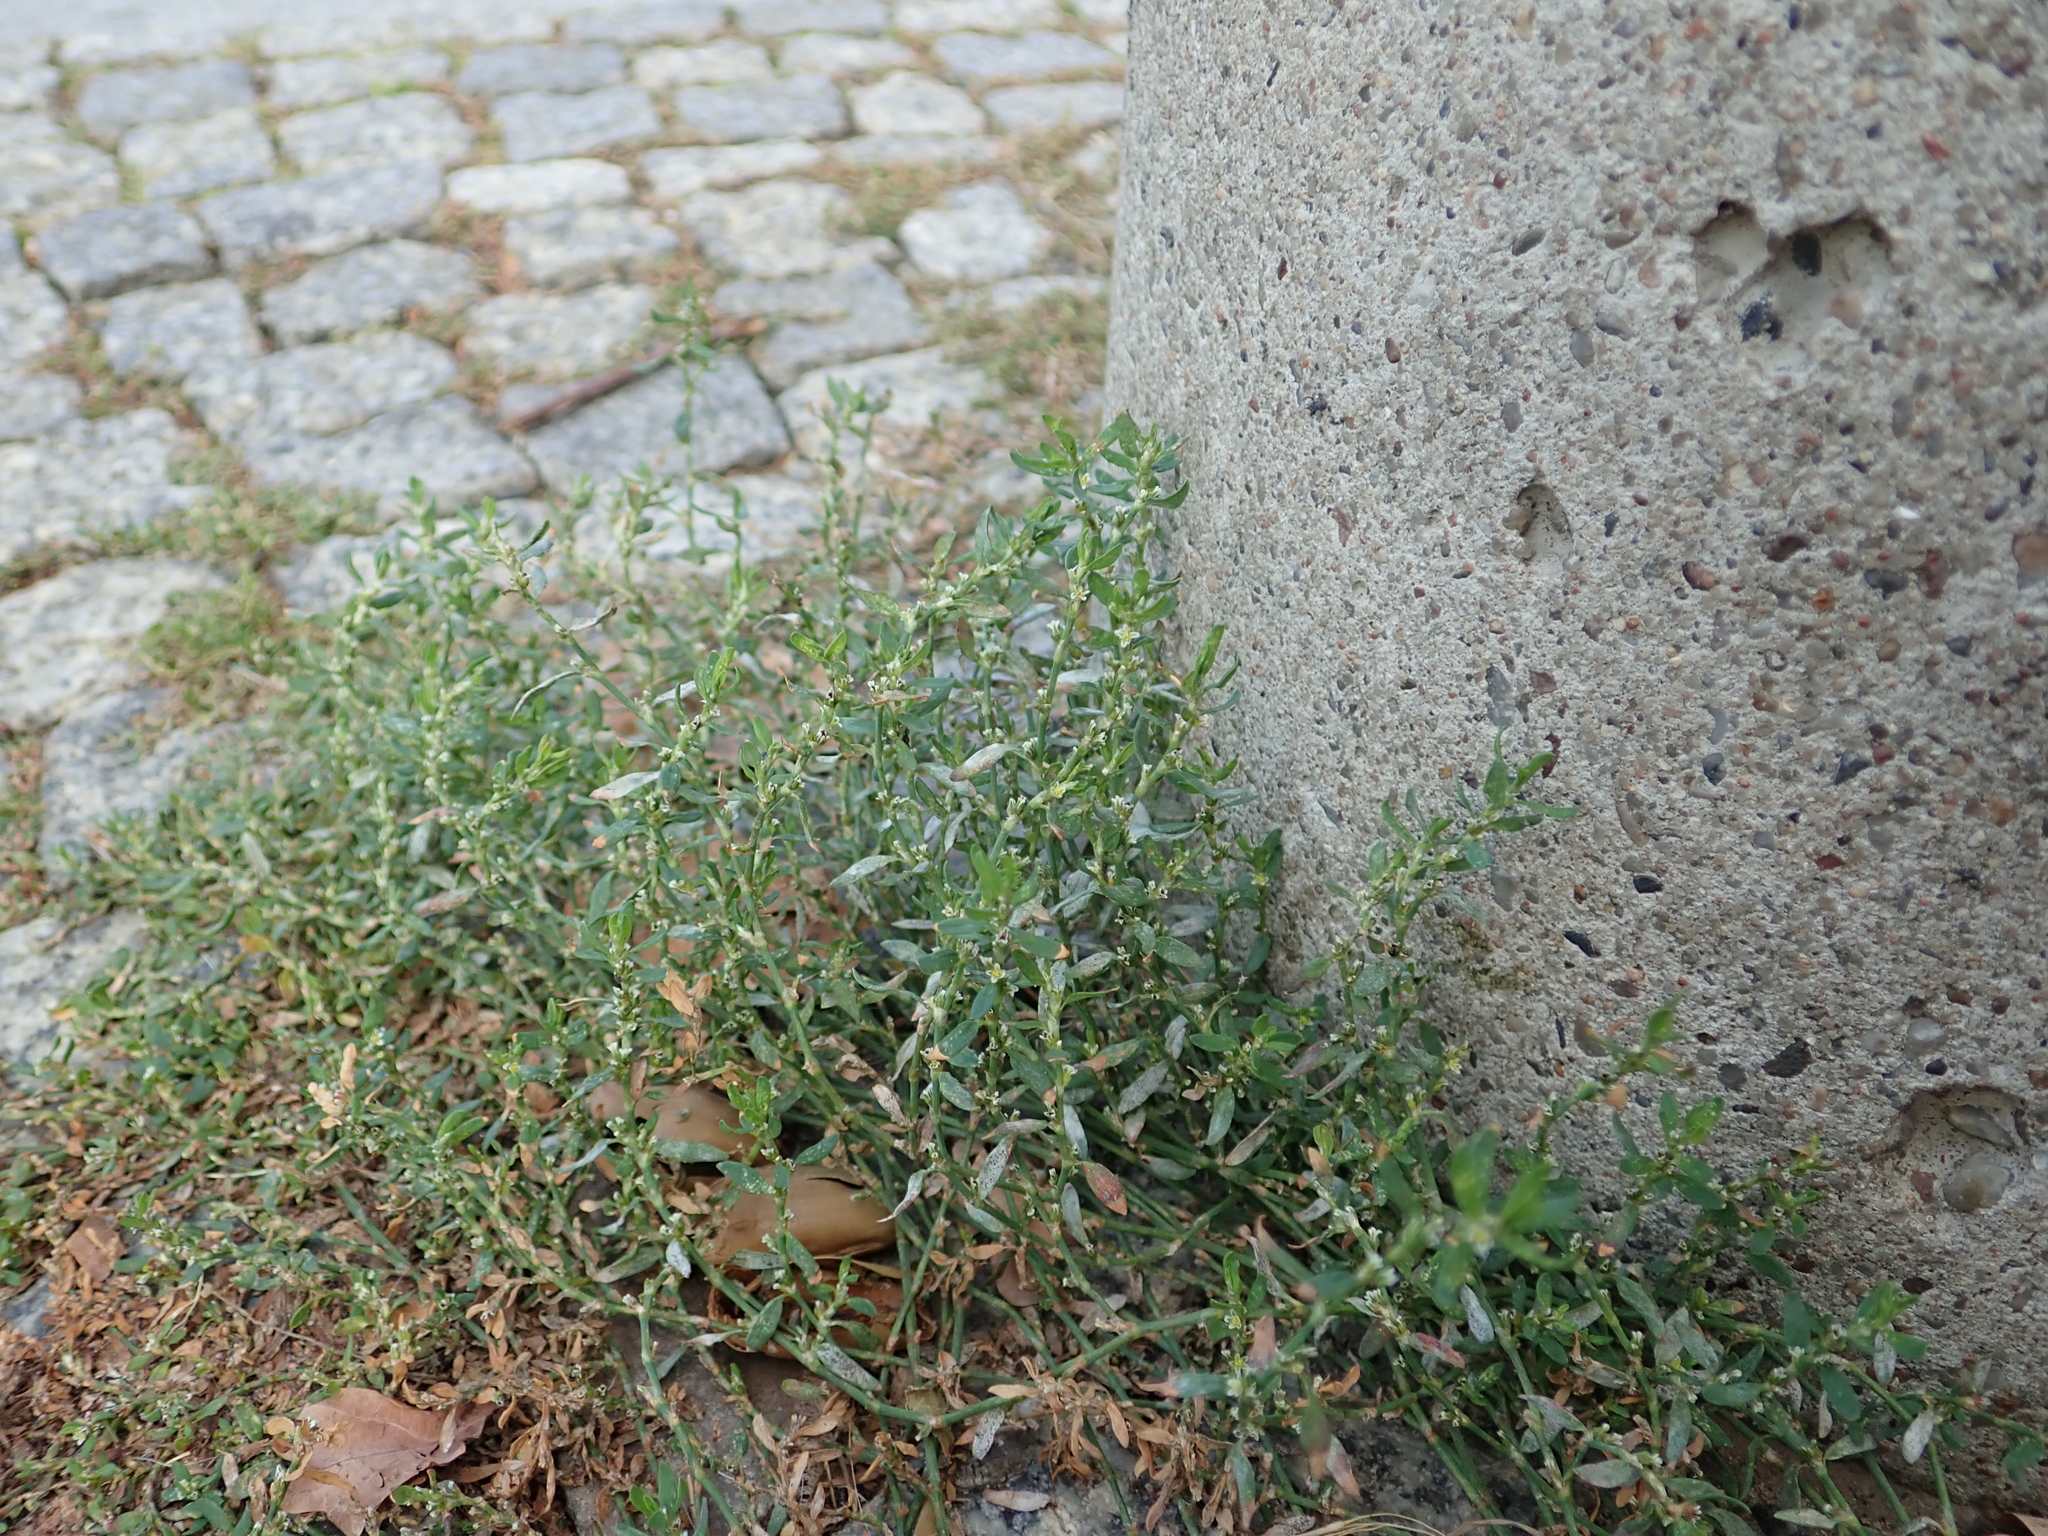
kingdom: Fungi
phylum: Ascomycota
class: Leotiomycetes
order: Helotiales
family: Erysiphaceae
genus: Erysiphe
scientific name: Erysiphe polygoni
